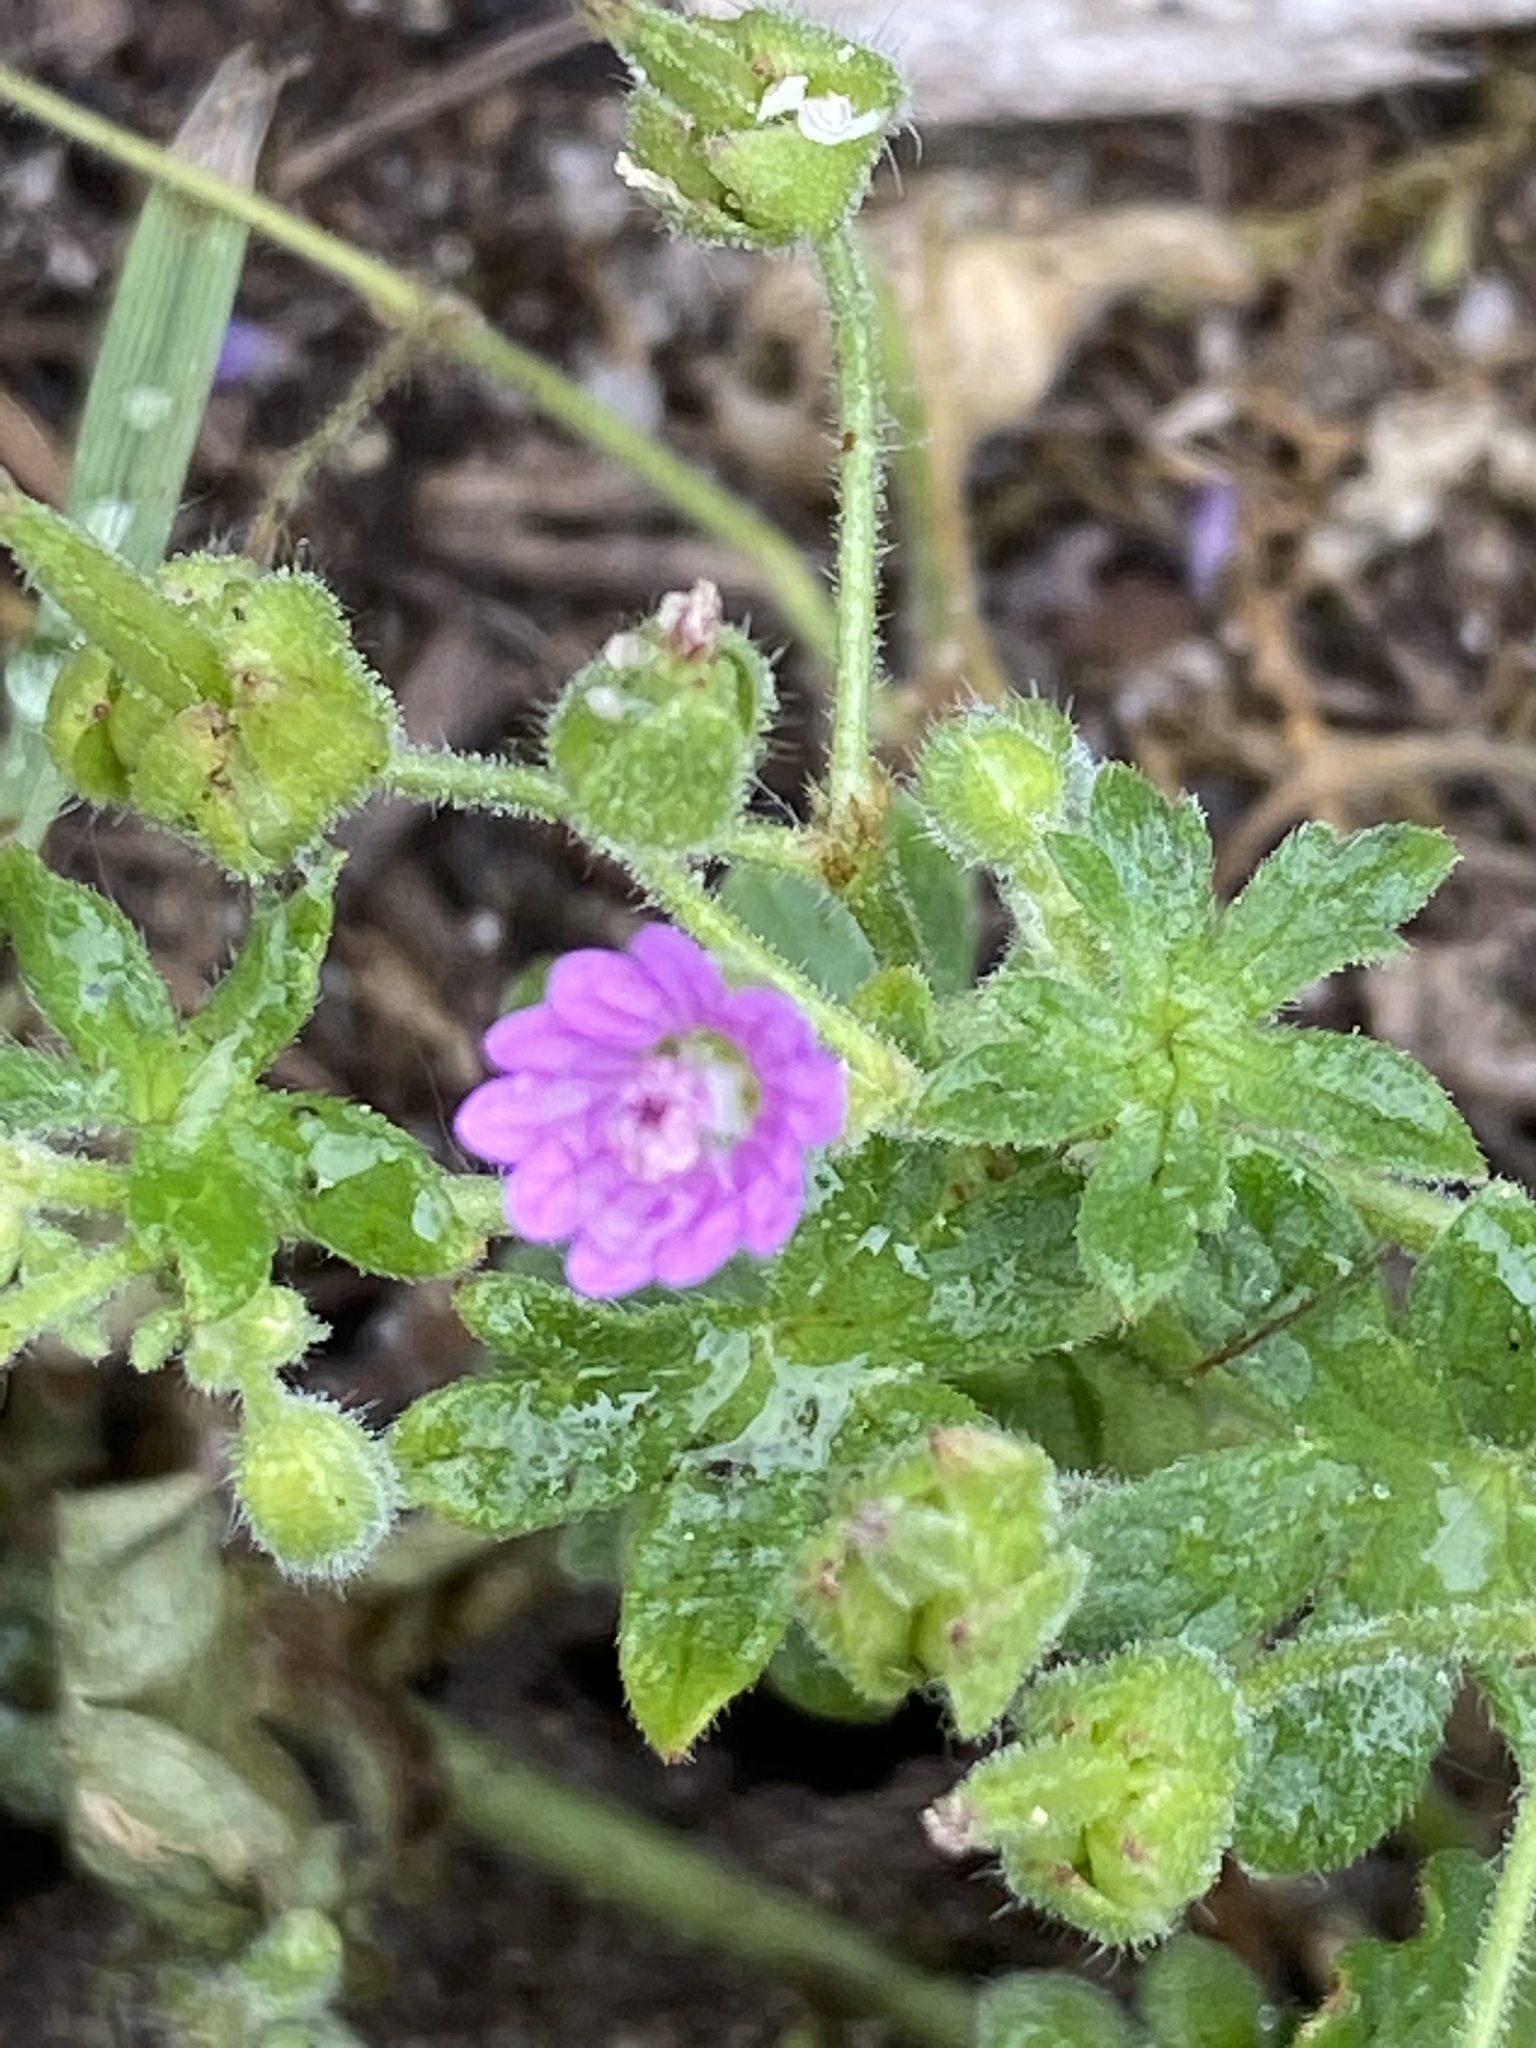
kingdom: Plantae
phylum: Tracheophyta
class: Magnoliopsida
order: Geraniales
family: Geraniaceae
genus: Geranium
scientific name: Geranium molle
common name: Dove's-foot crane's-bill
